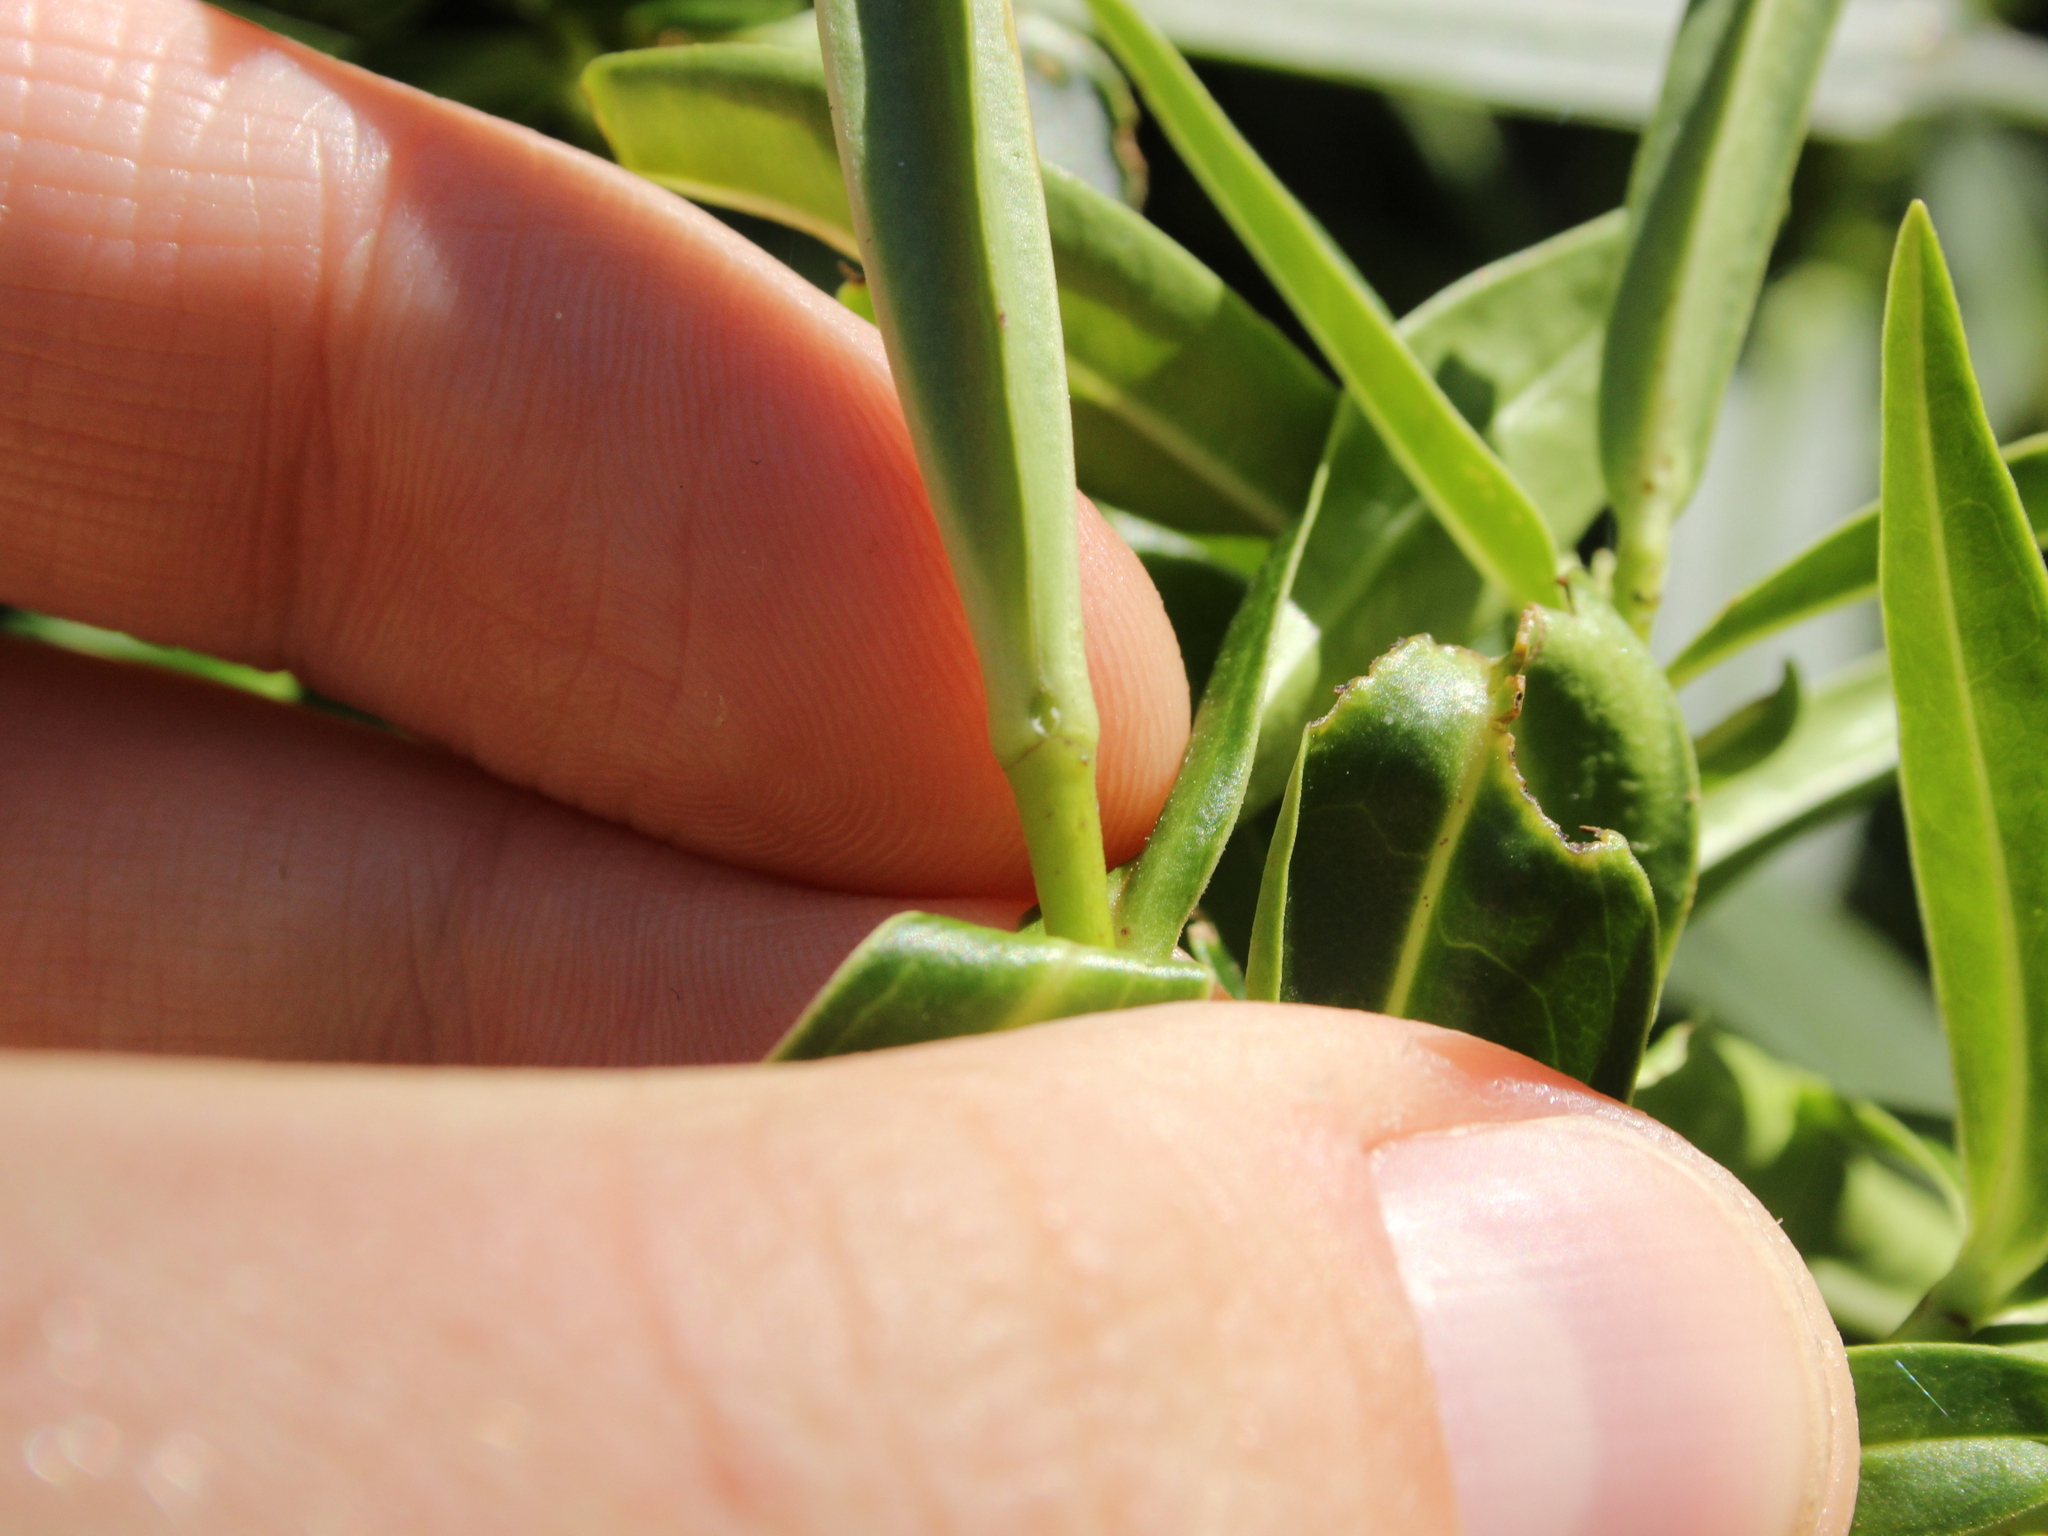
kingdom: Plantae
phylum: Tracheophyta
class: Magnoliopsida
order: Lamiales
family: Plantaginaceae
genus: Veronica
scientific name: Veronica salicifolia
